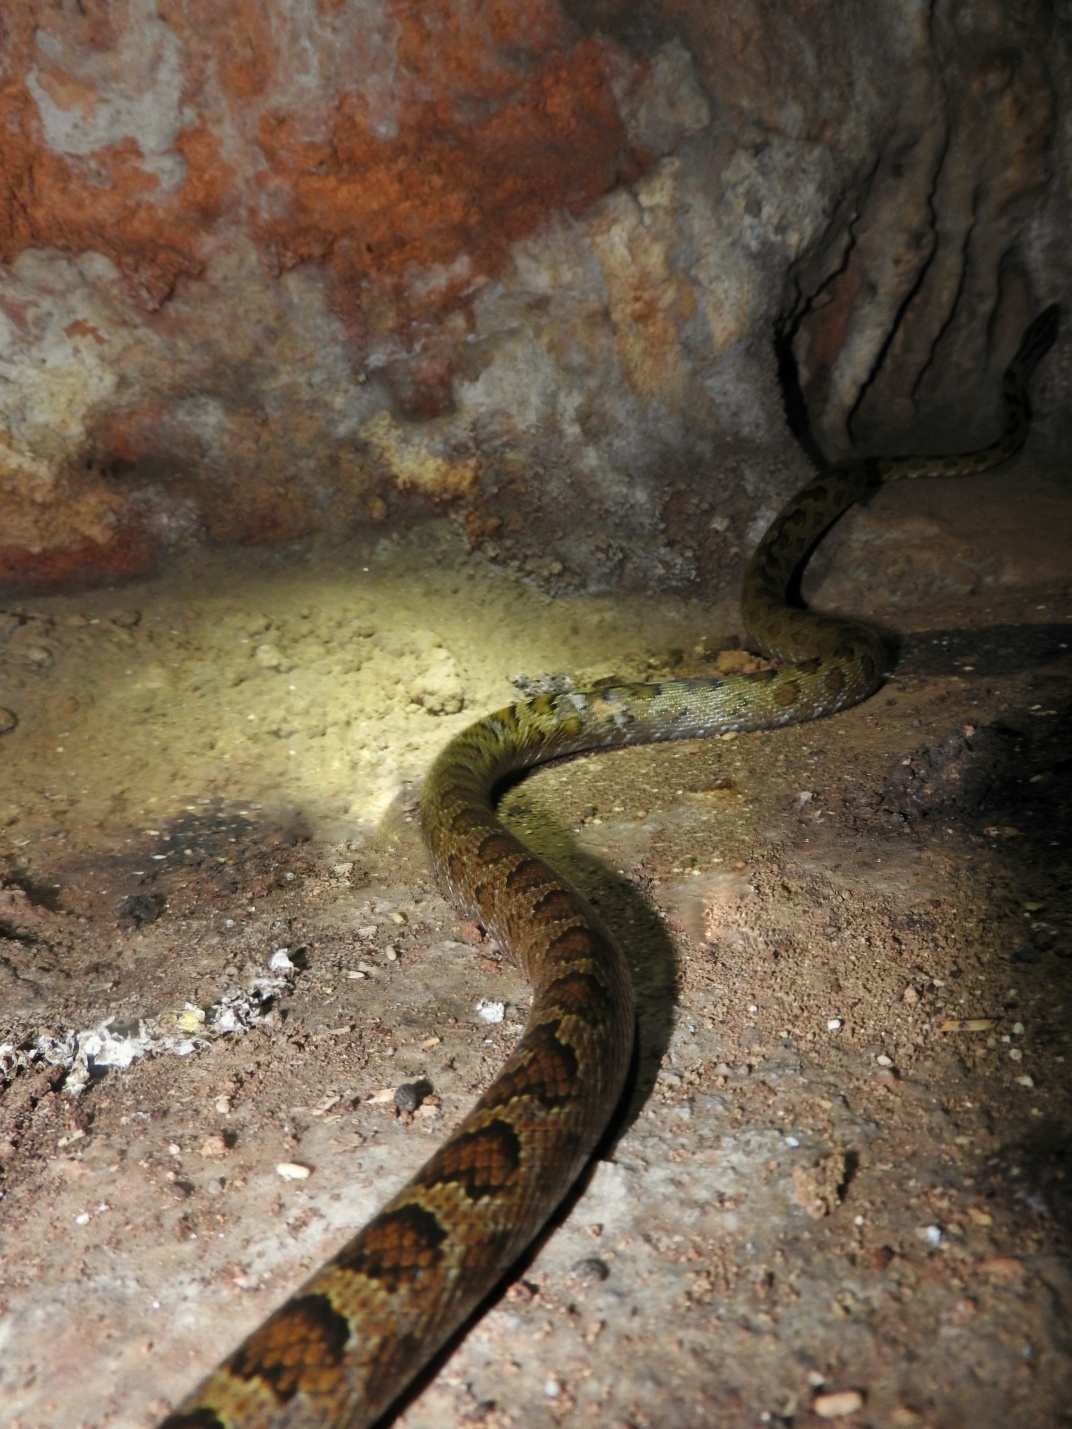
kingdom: Animalia
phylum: Chordata
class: Squamata
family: Colubridae
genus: Senticolis
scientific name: Senticolis triaspis
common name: Green rat snake
